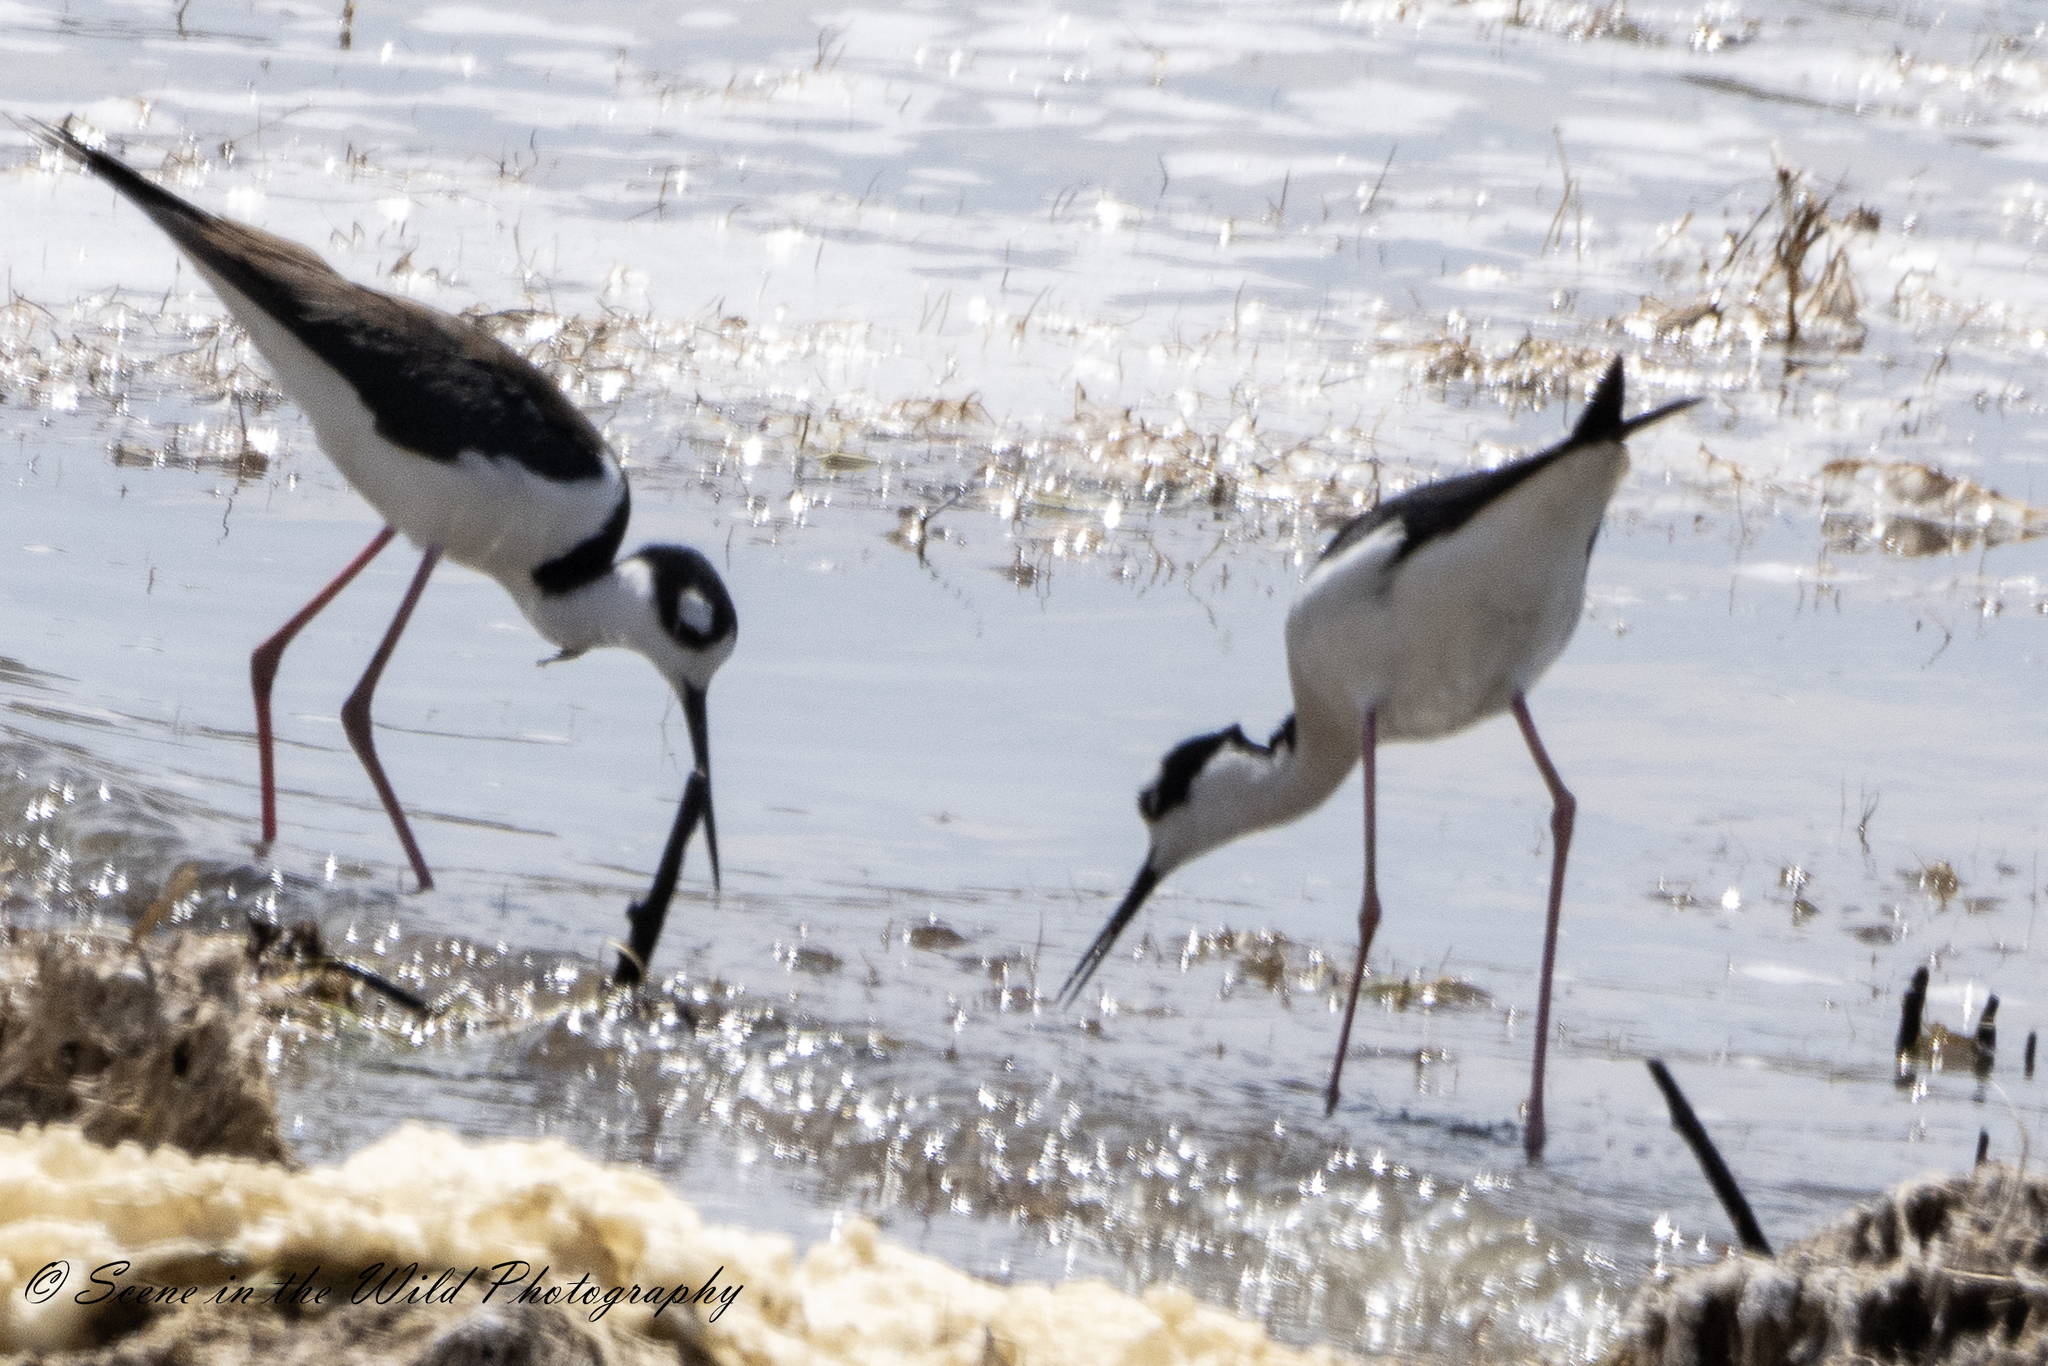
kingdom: Animalia
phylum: Chordata
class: Aves
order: Charadriiformes
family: Recurvirostridae
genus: Himantopus
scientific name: Himantopus mexicanus
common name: Black-necked stilt
